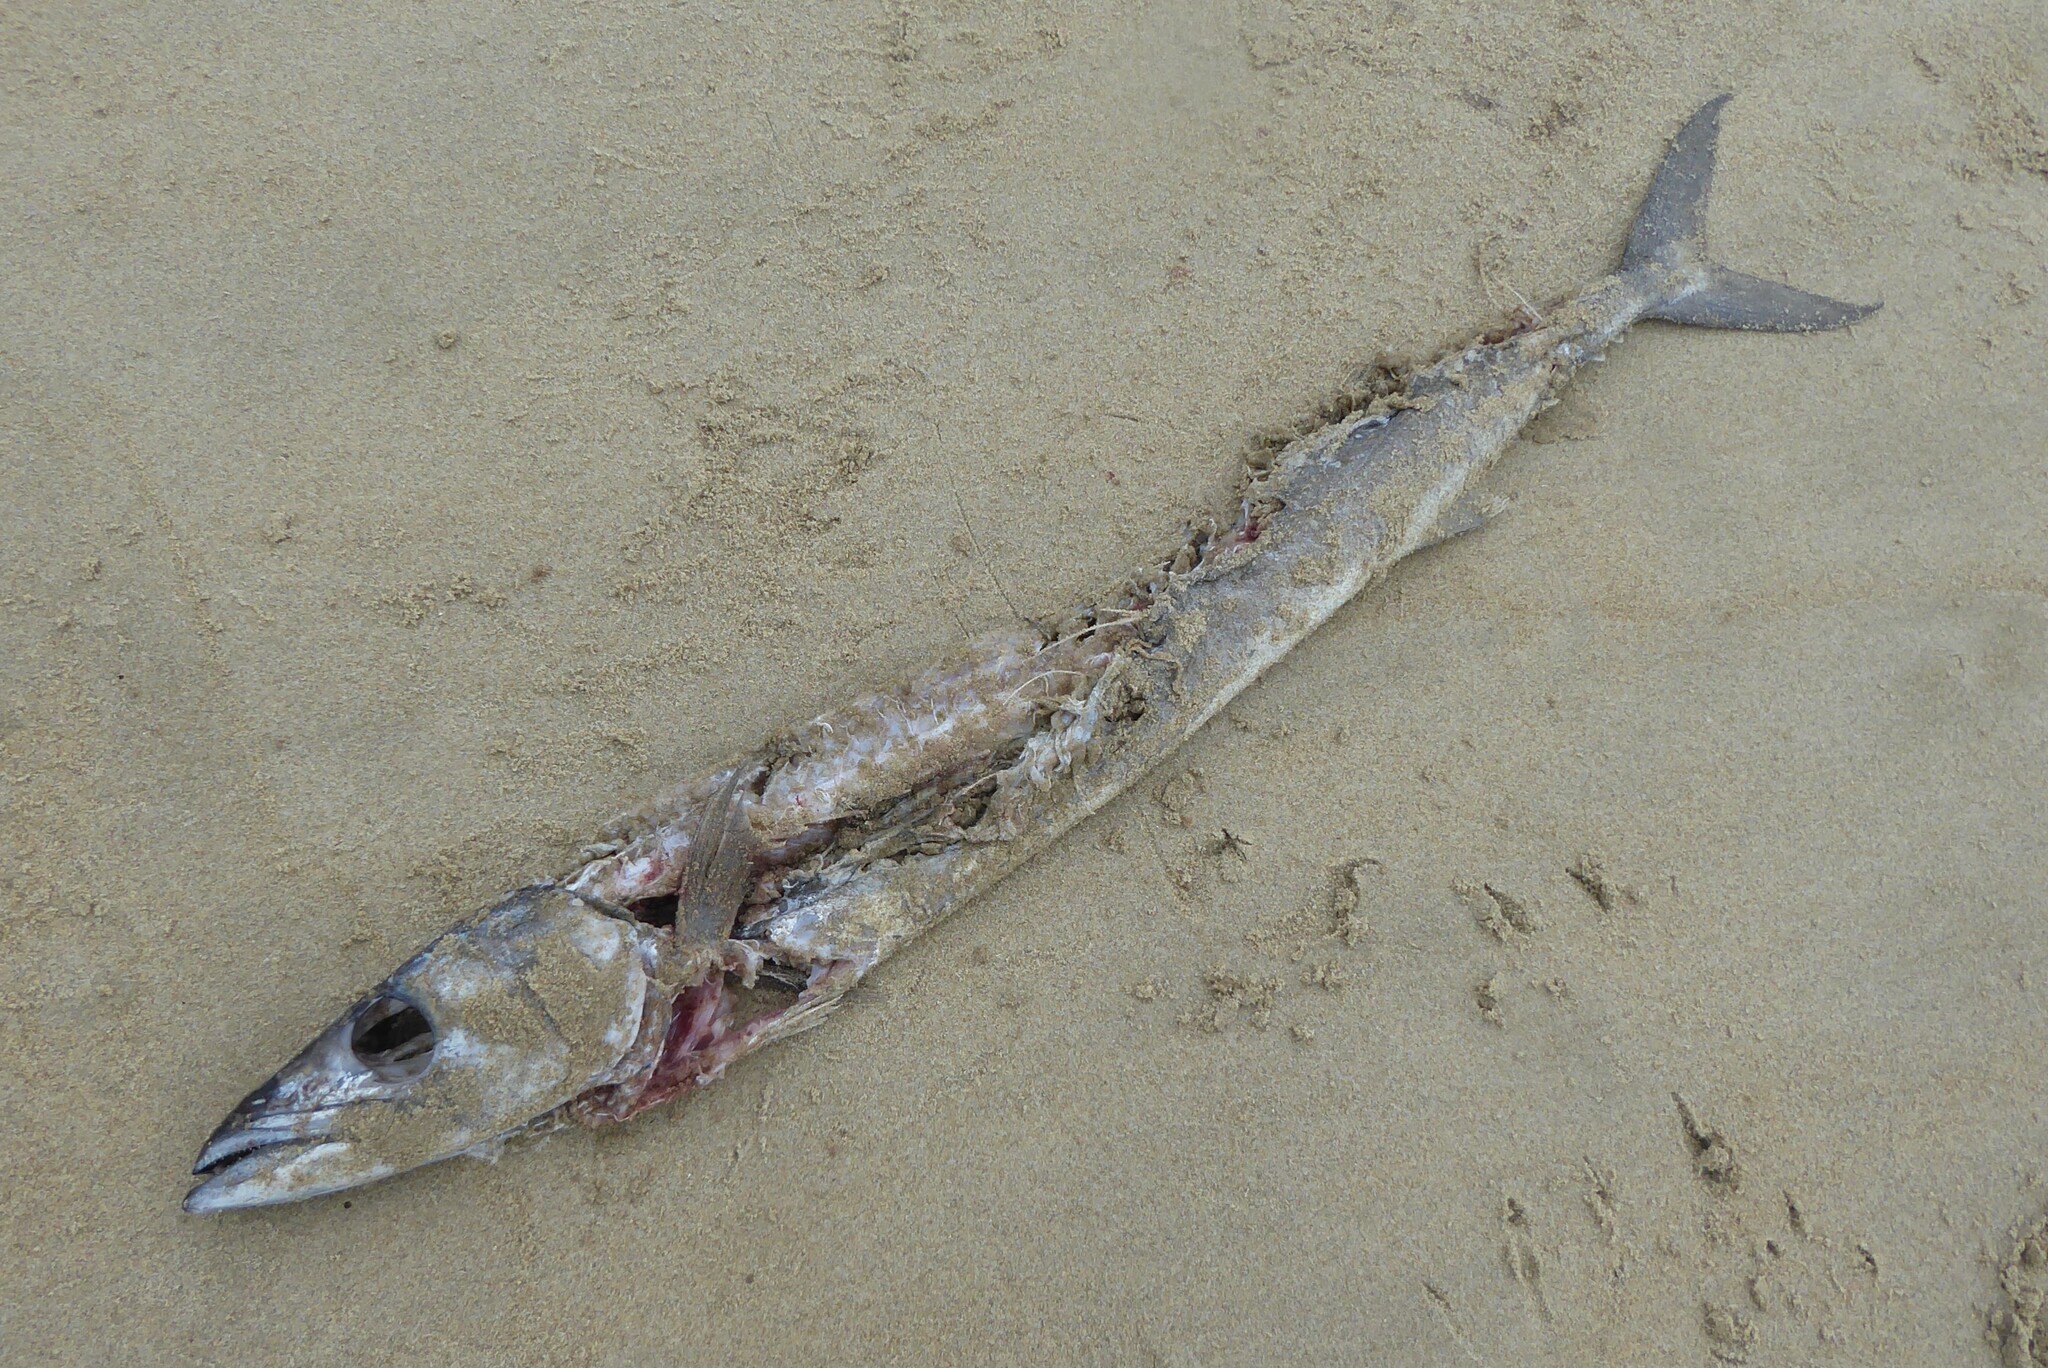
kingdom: Animalia
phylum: Chordata
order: Perciformes
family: Gempylidae
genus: Thyrsites
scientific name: Thyrsites atun
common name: Snoek
